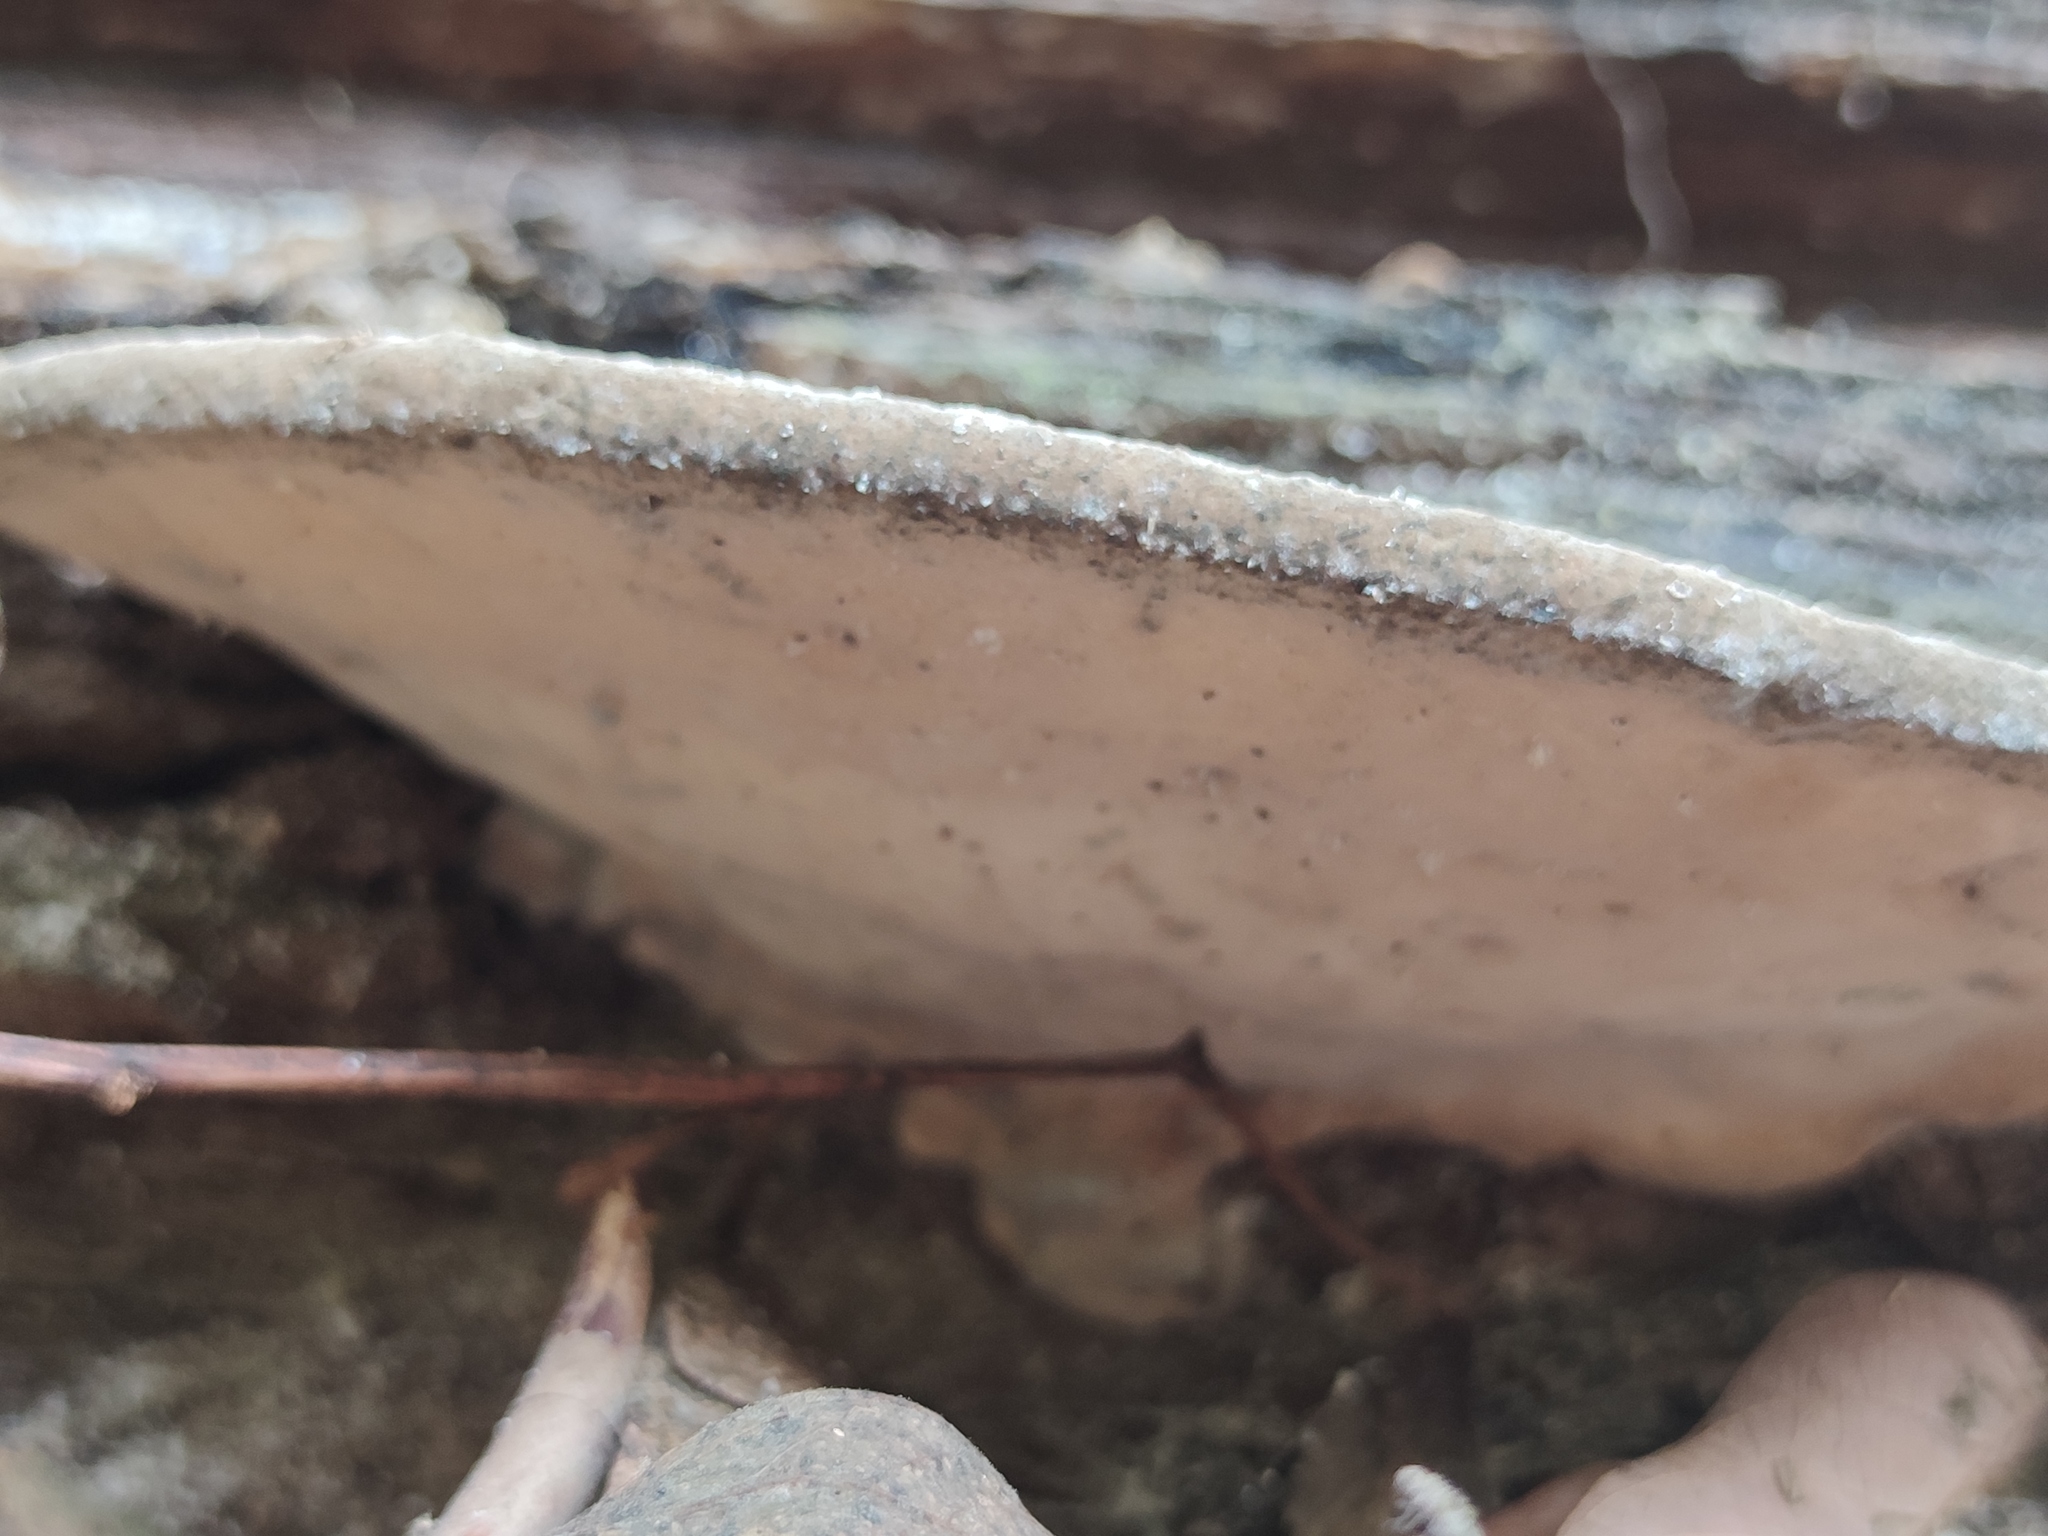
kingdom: Fungi
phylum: Basidiomycota
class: Agaricomycetes
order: Polyporales
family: Polyporaceae
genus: Trametes
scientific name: Trametes lactinea
